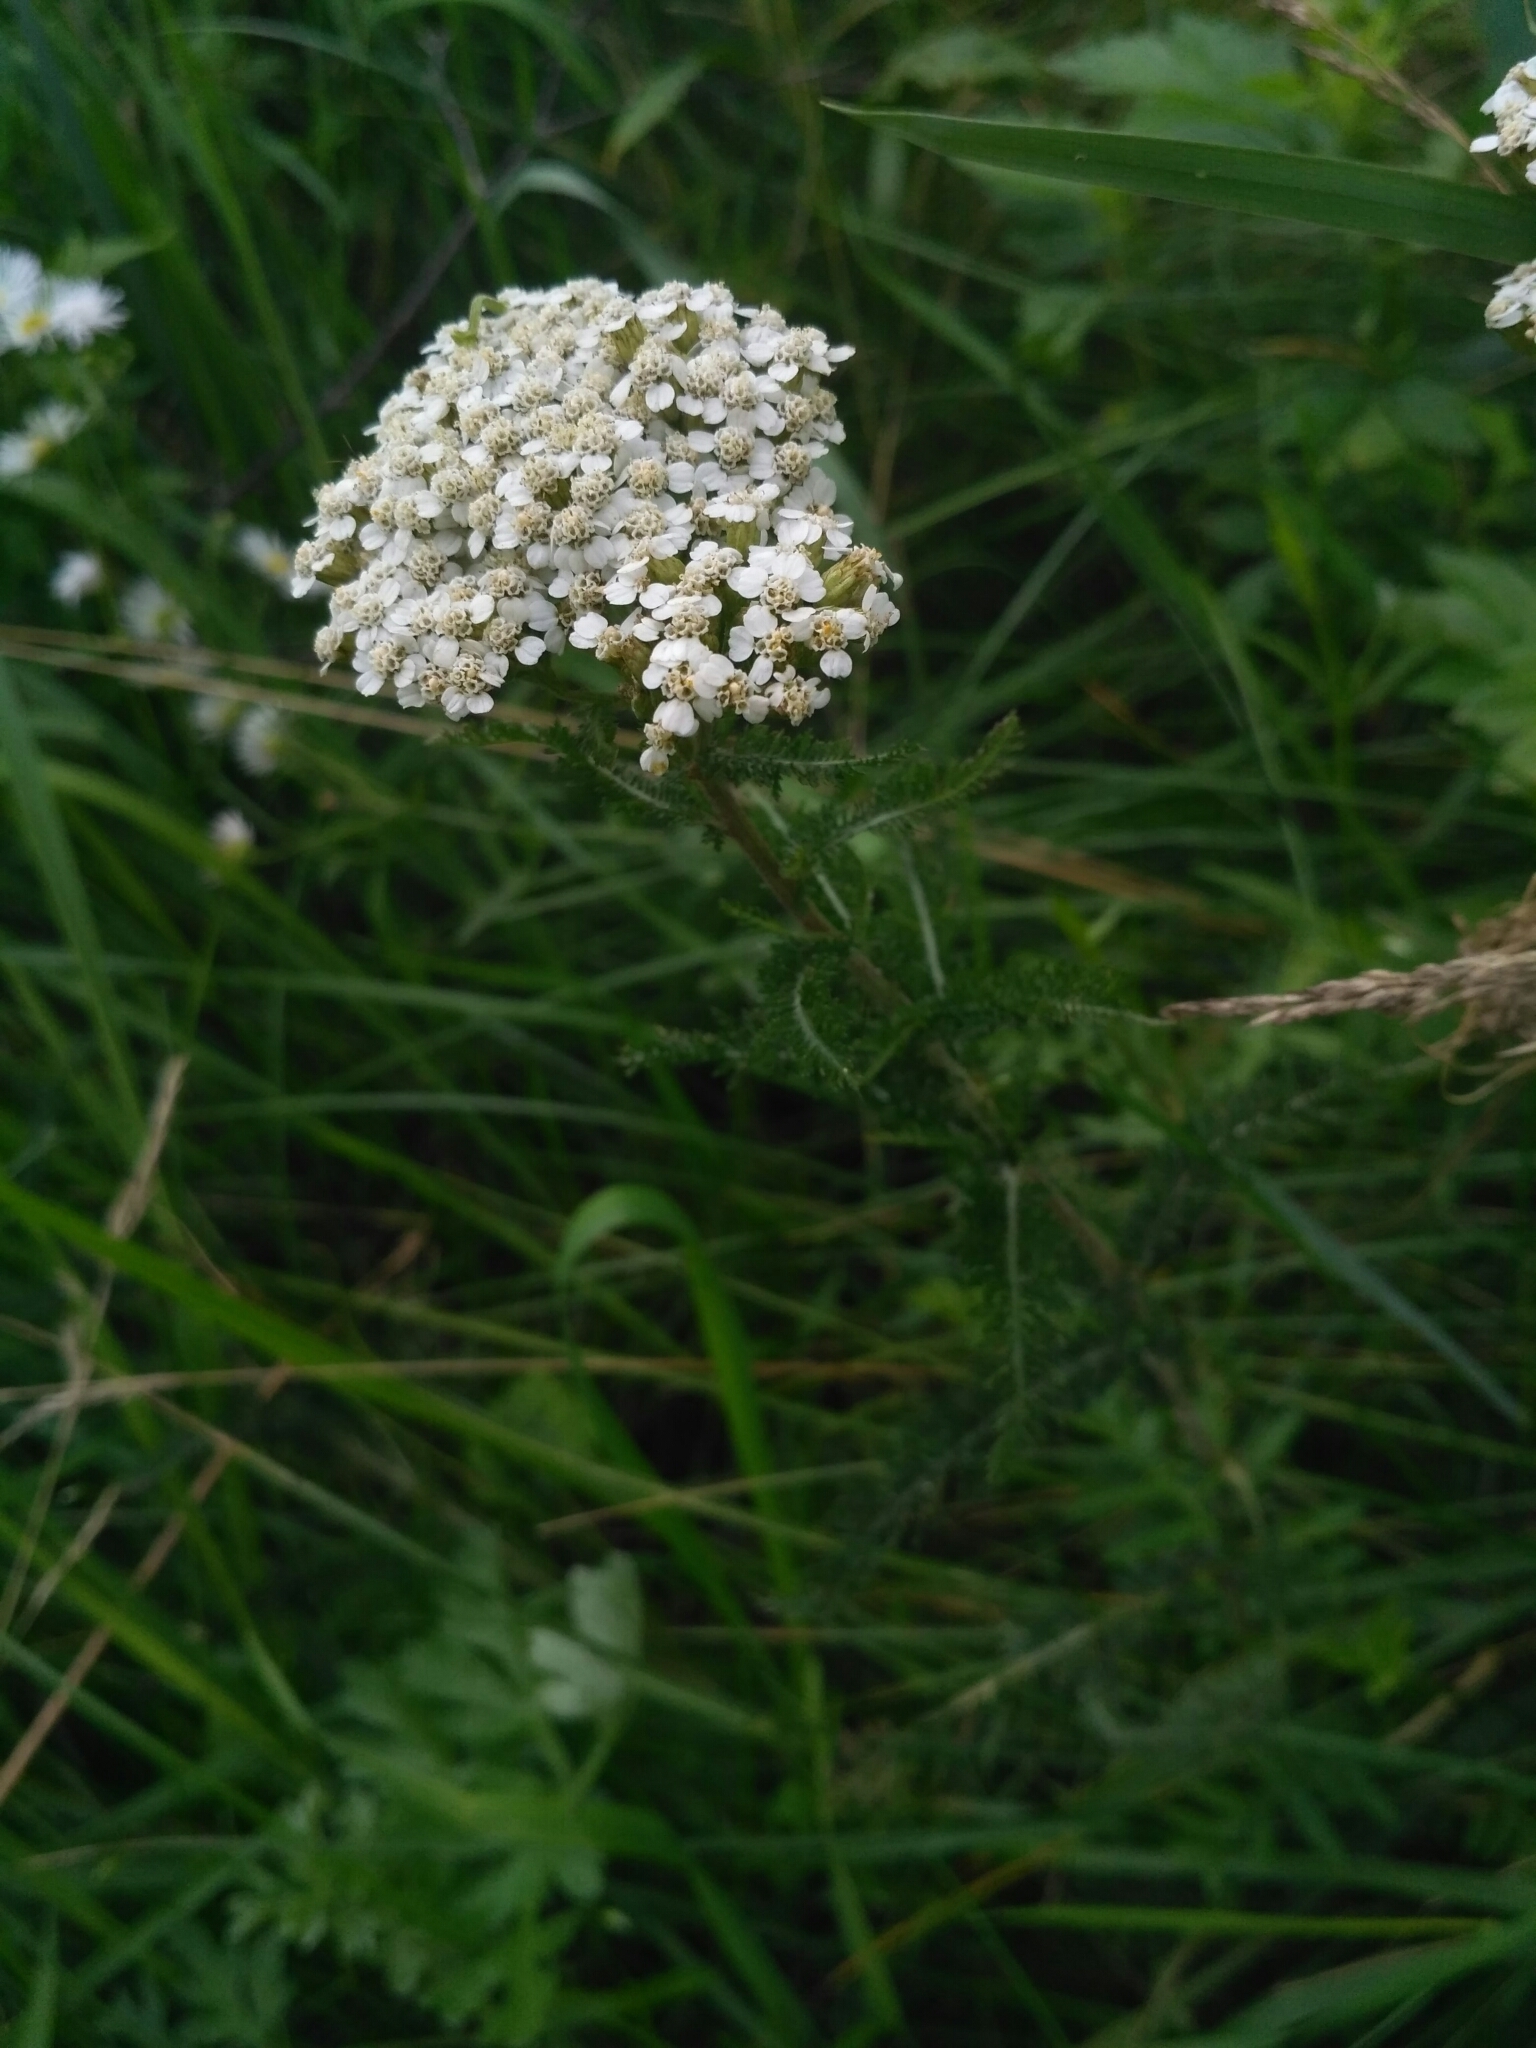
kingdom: Plantae
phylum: Tracheophyta
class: Magnoliopsida
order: Asterales
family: Asteraceae
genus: Achillea
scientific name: Achillea millefolium
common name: Yarrow
